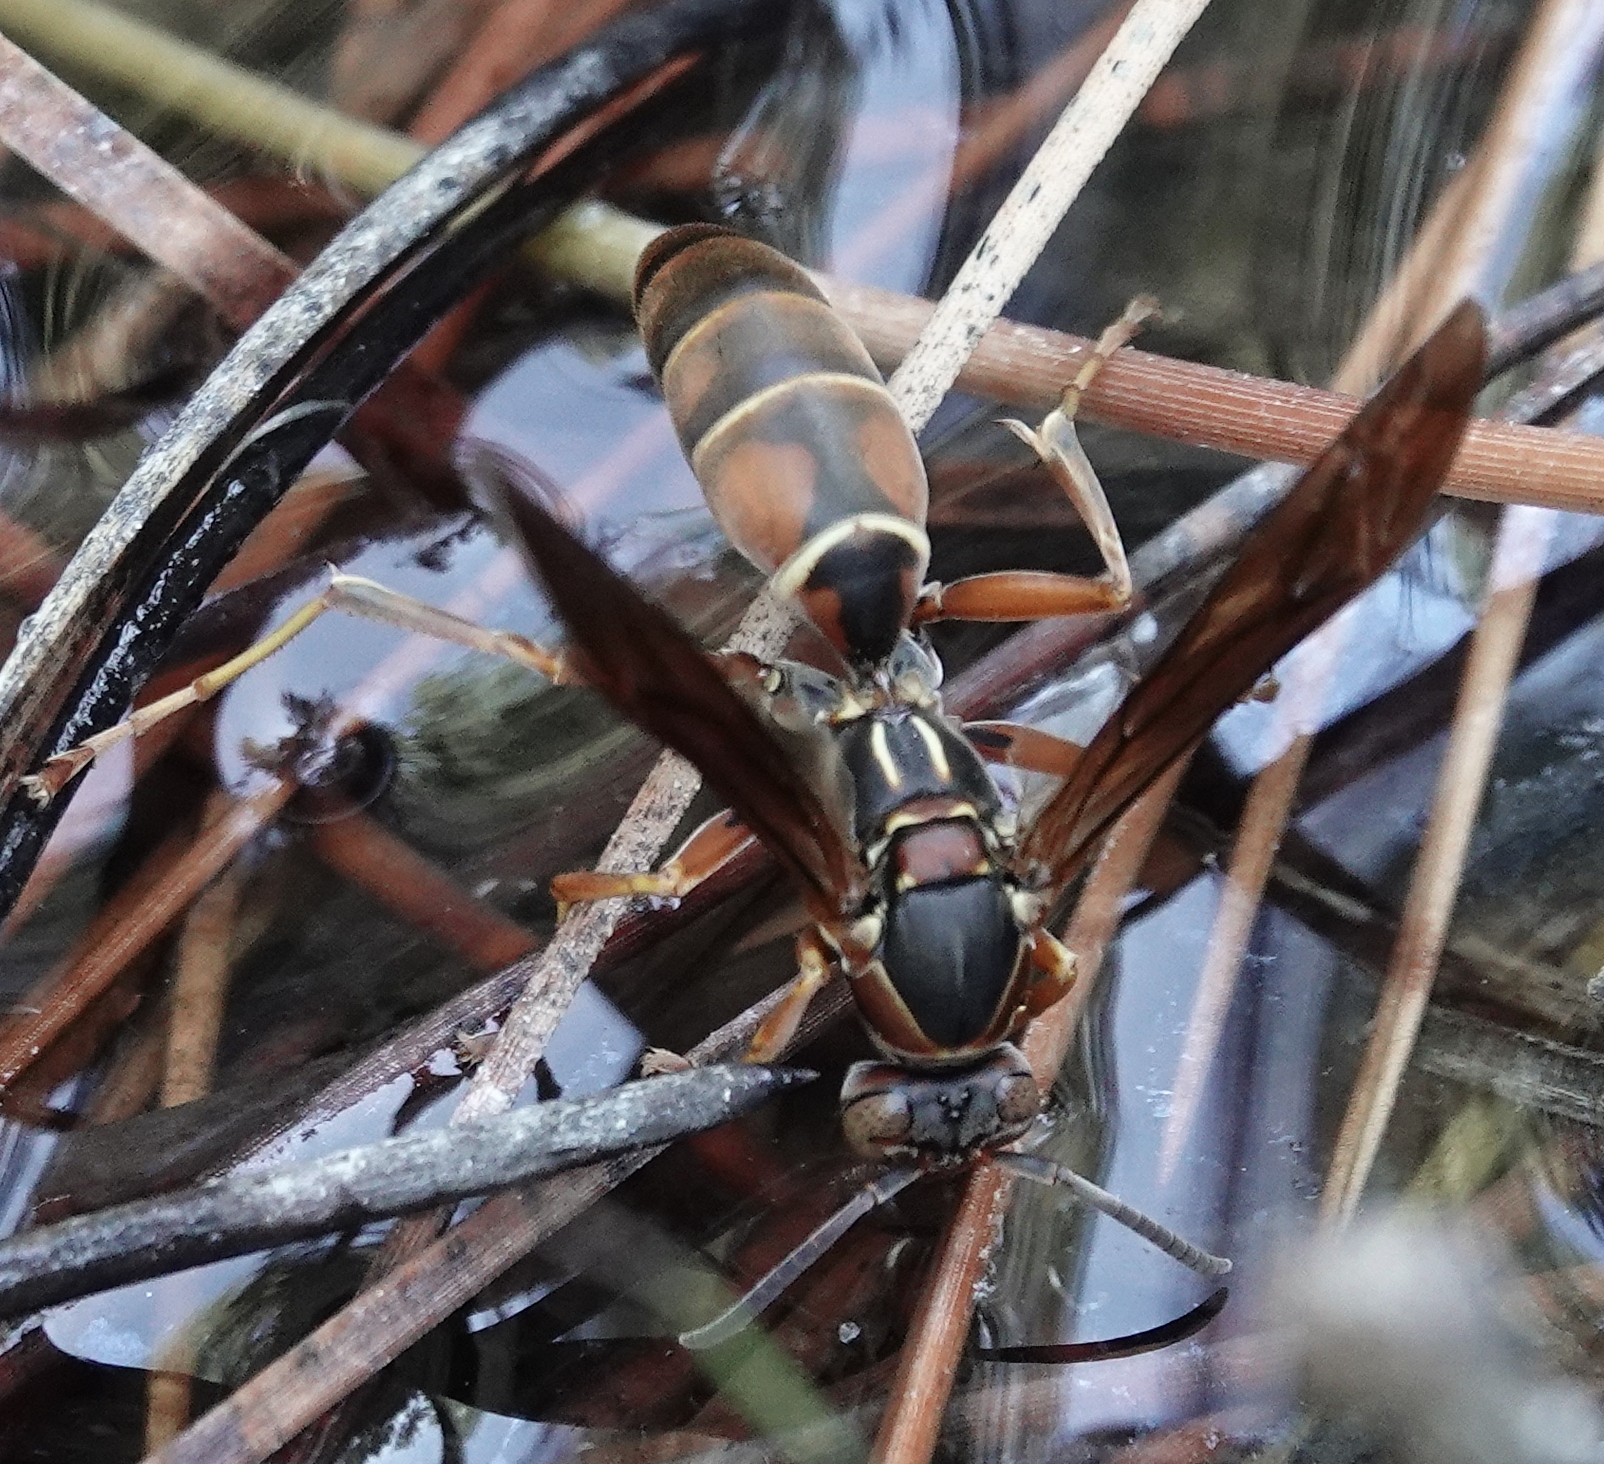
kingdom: Animalia
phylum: Arthropoda
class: Insecta
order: Hymenoptera
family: Eumenidae
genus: Polistes
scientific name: Polistes fuscatus
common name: Dark paper wasp
